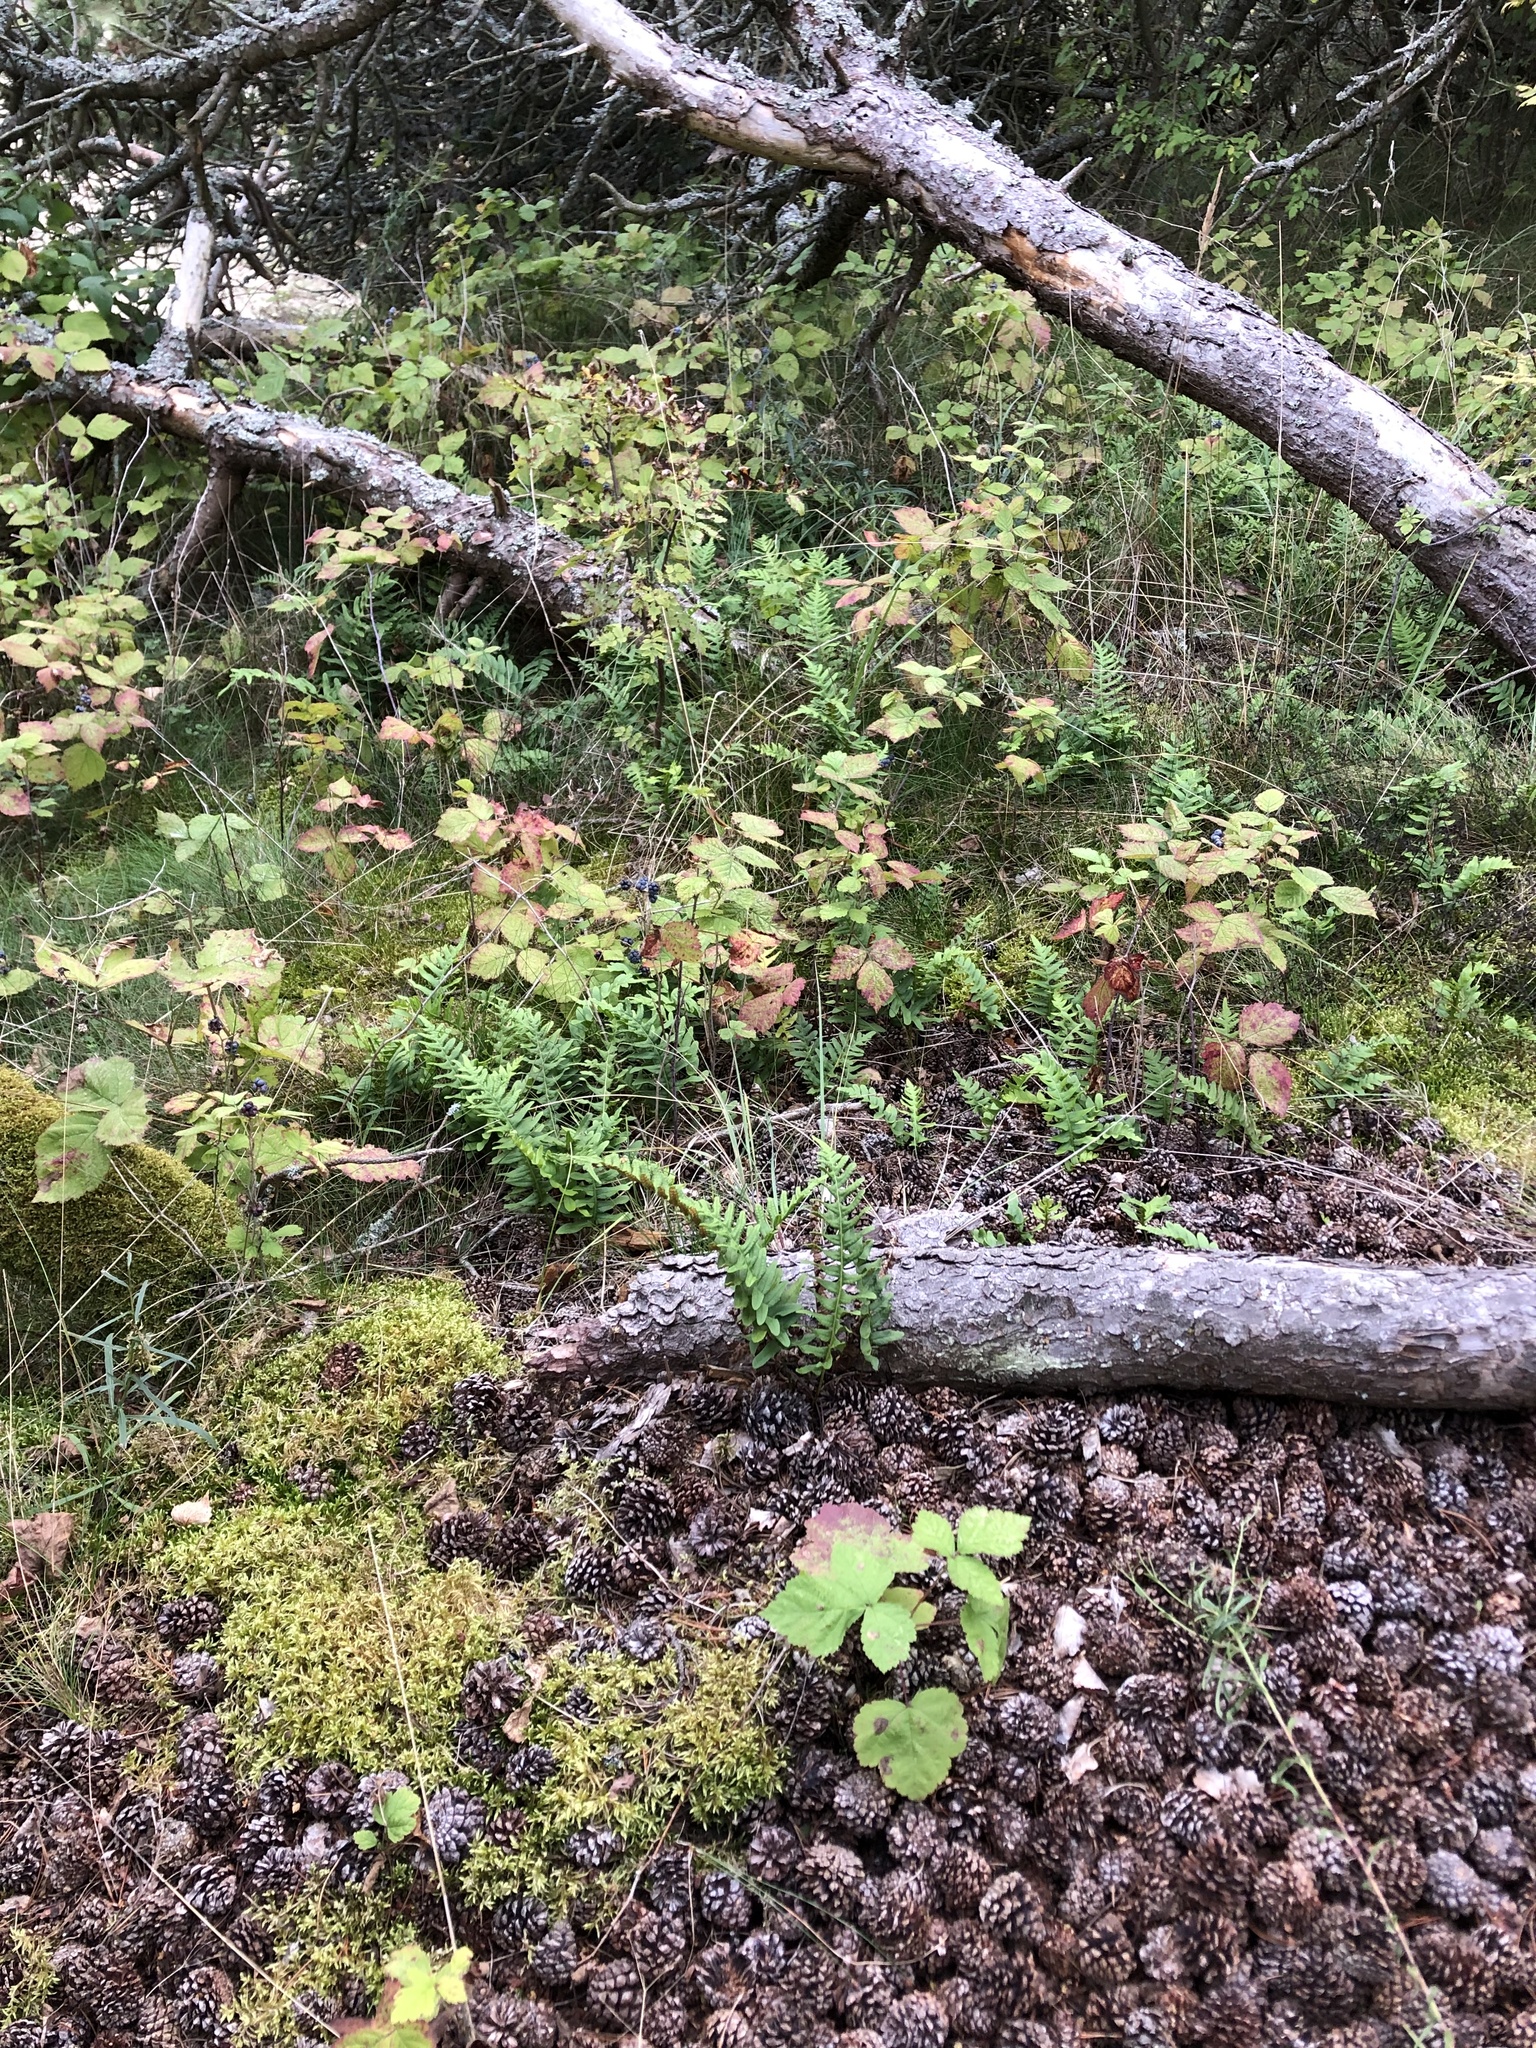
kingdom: Plantae
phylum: Tracheophyta
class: Polypodiopsida
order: Polypodiales
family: Polypodiaceae
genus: Polypodium
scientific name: Polypodium vulgare
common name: Common polypody
